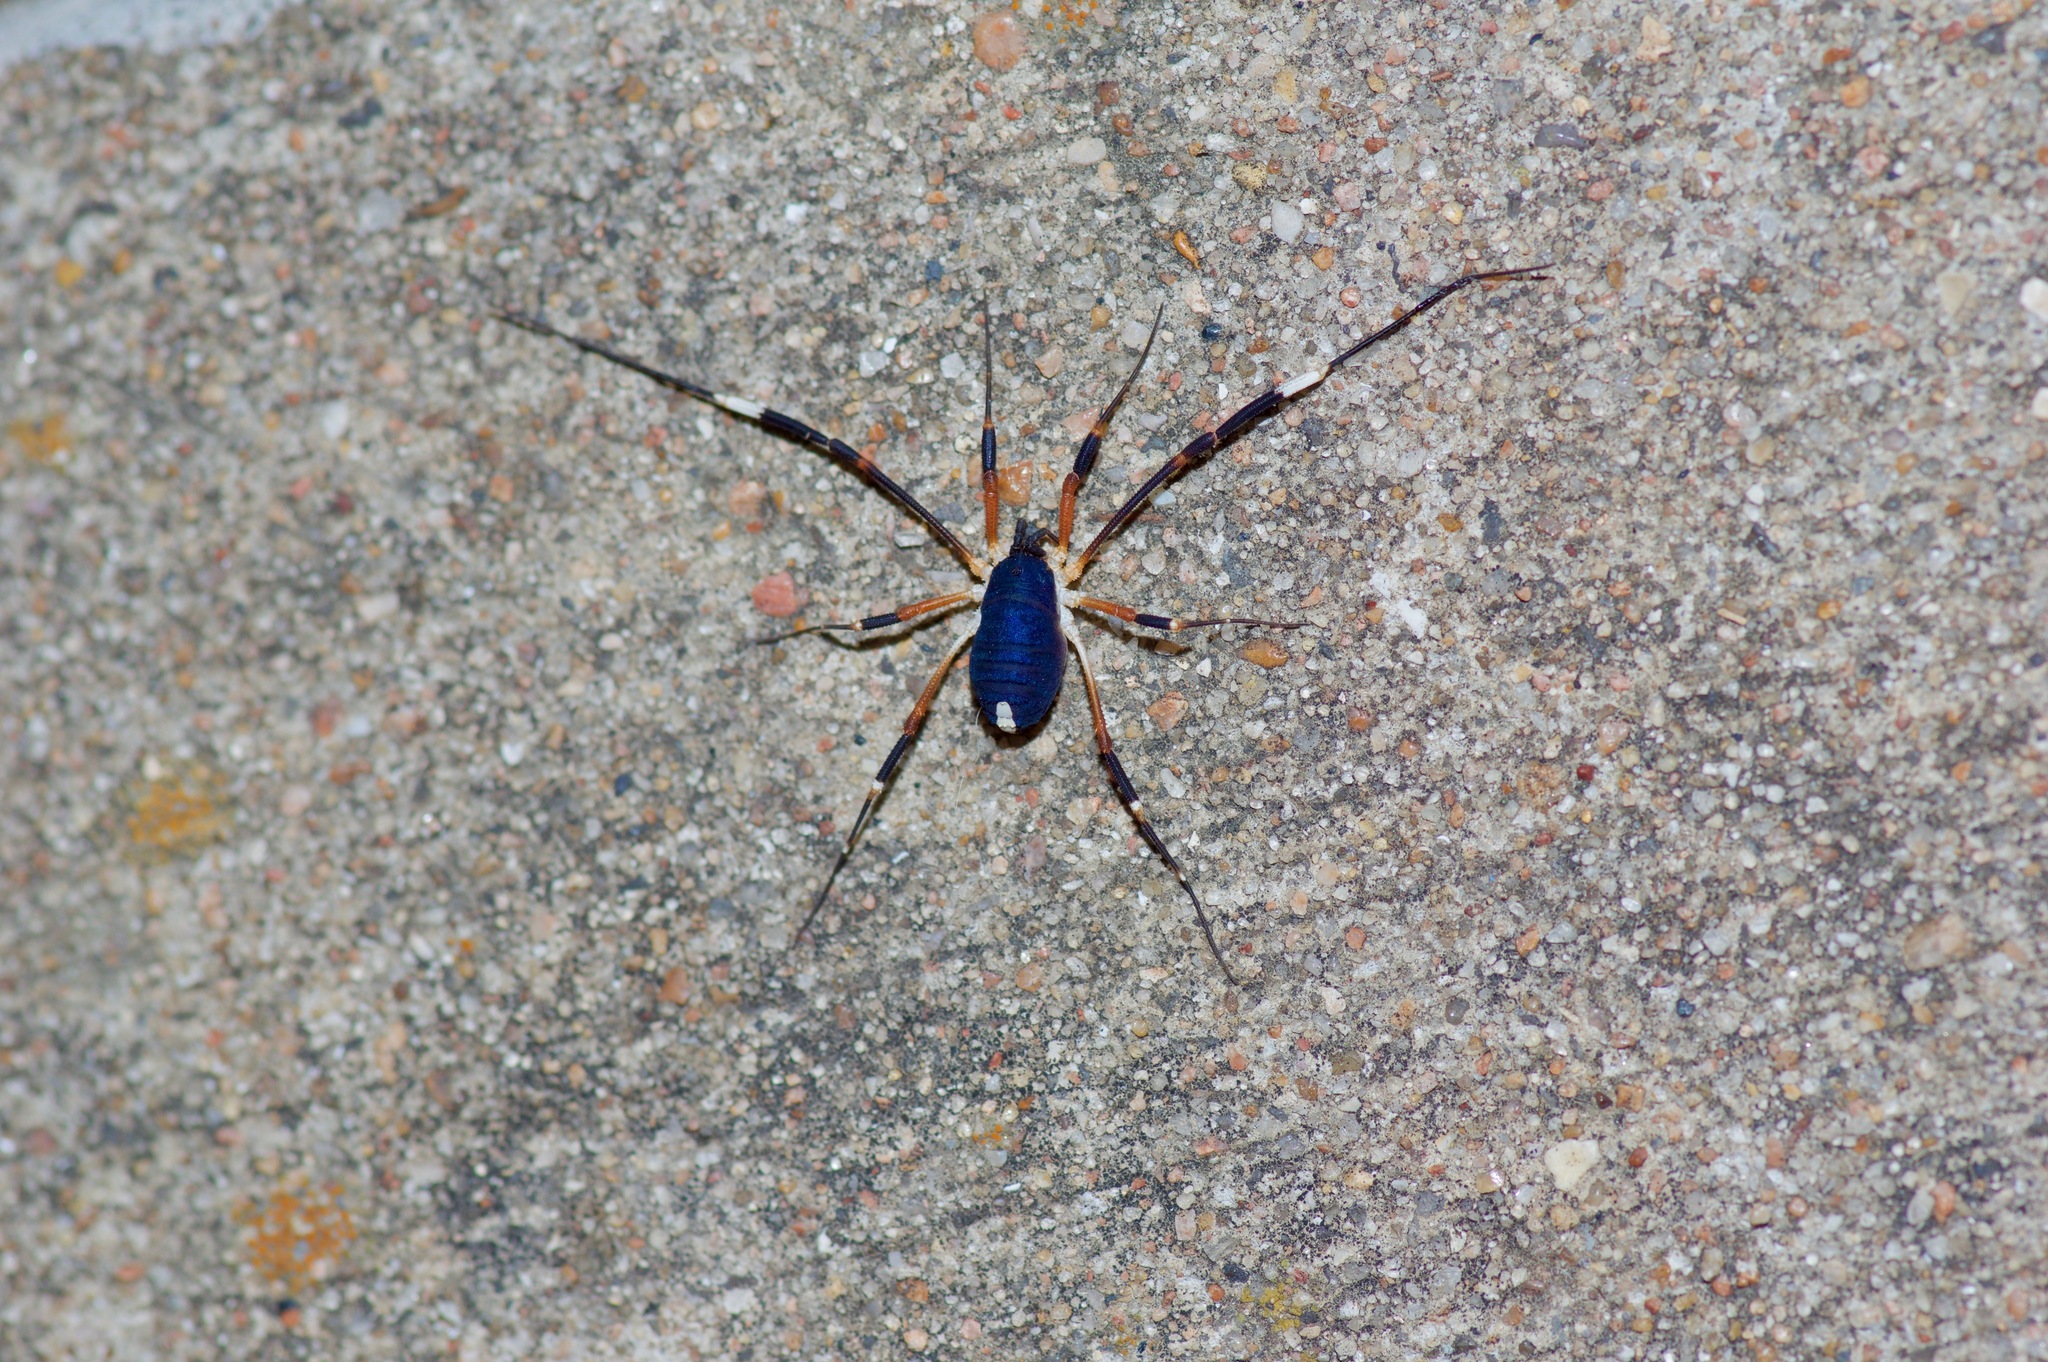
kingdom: Animalia
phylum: Arthropoda
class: Arachnida
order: Opiliones
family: Globipedidae
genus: Dalquestia
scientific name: Dalquestia formosa
